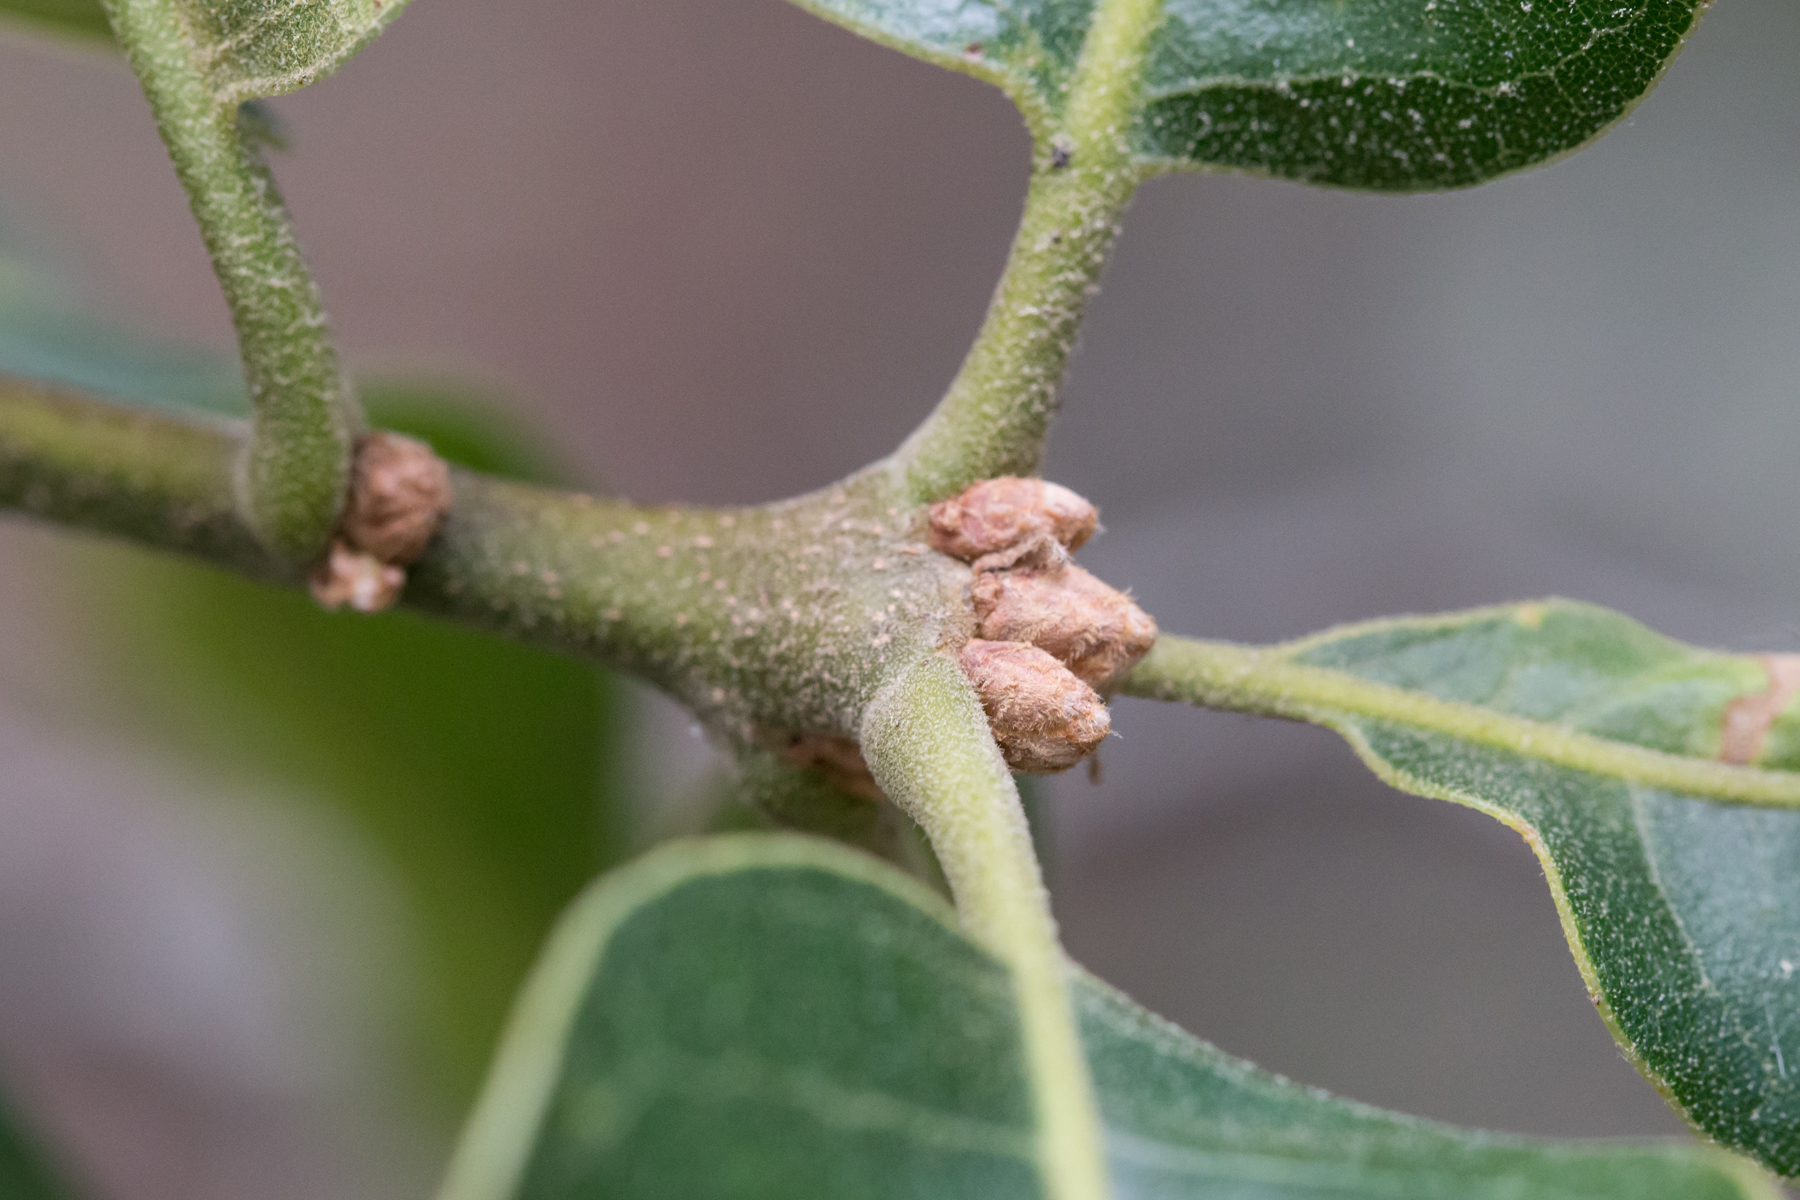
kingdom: Plantae
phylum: Tracheophyta
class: Magnoliopsida
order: Fagales
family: Fagaceae
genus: Quercus
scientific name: Quercus marilandica
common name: Blackjack oak
